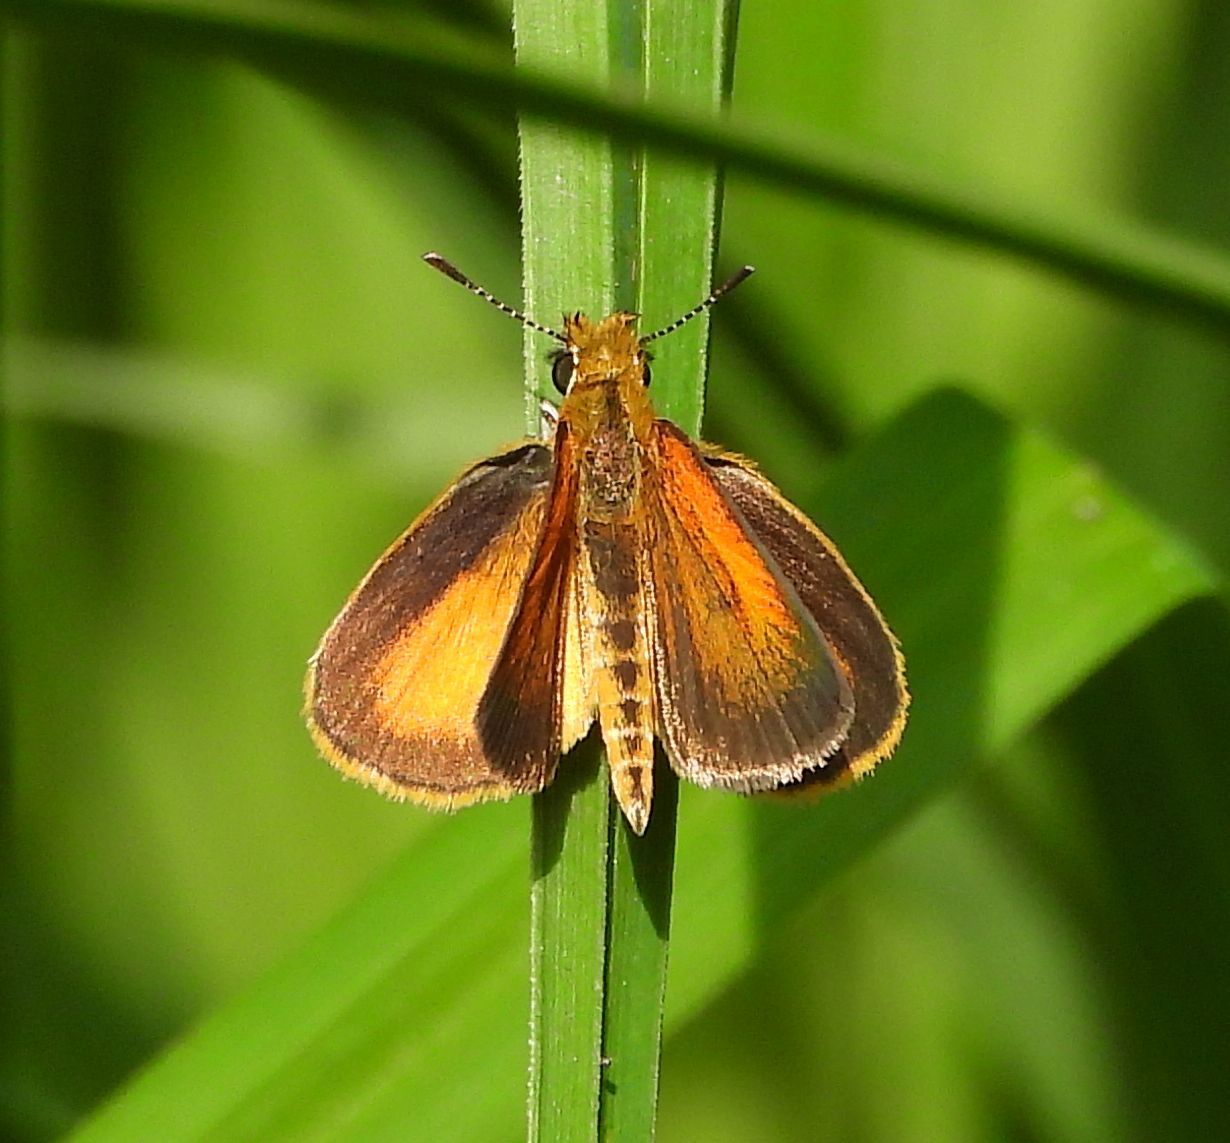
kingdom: Animalia
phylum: Arthropoda
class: Insecta
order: Lepidoptera
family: Hesperiidae
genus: Ancyloxypha
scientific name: Ancyloxypha numitor
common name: Least skipper
